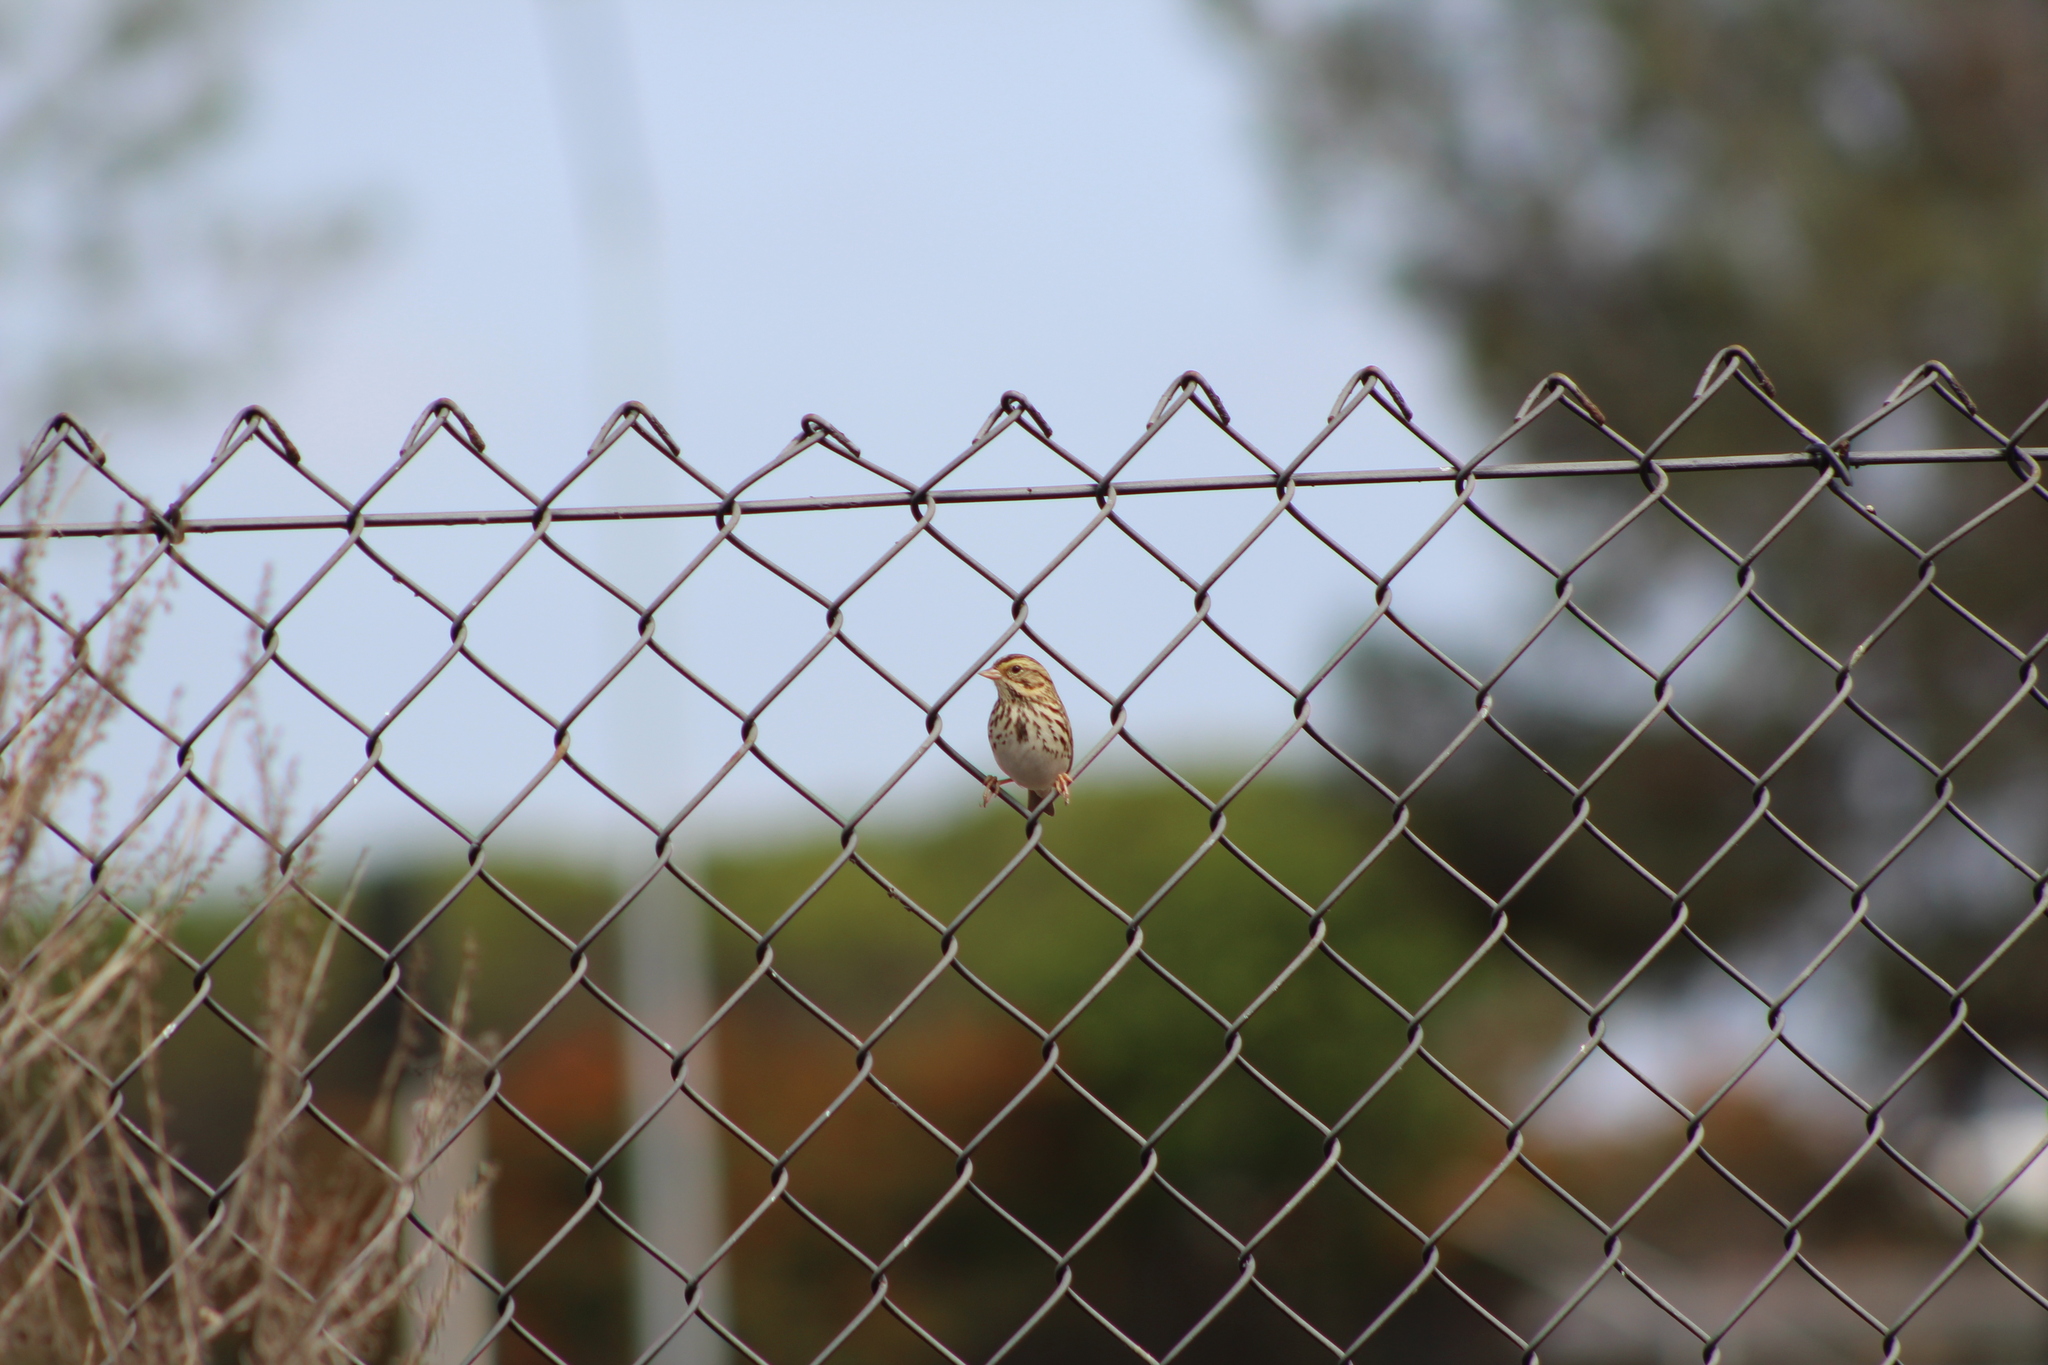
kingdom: Animalia
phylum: Chordata
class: Aves
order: Passeriformes
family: Passerellidae
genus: Passerculus
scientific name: Passerculus sandwichensis
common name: Savannah sparrow
